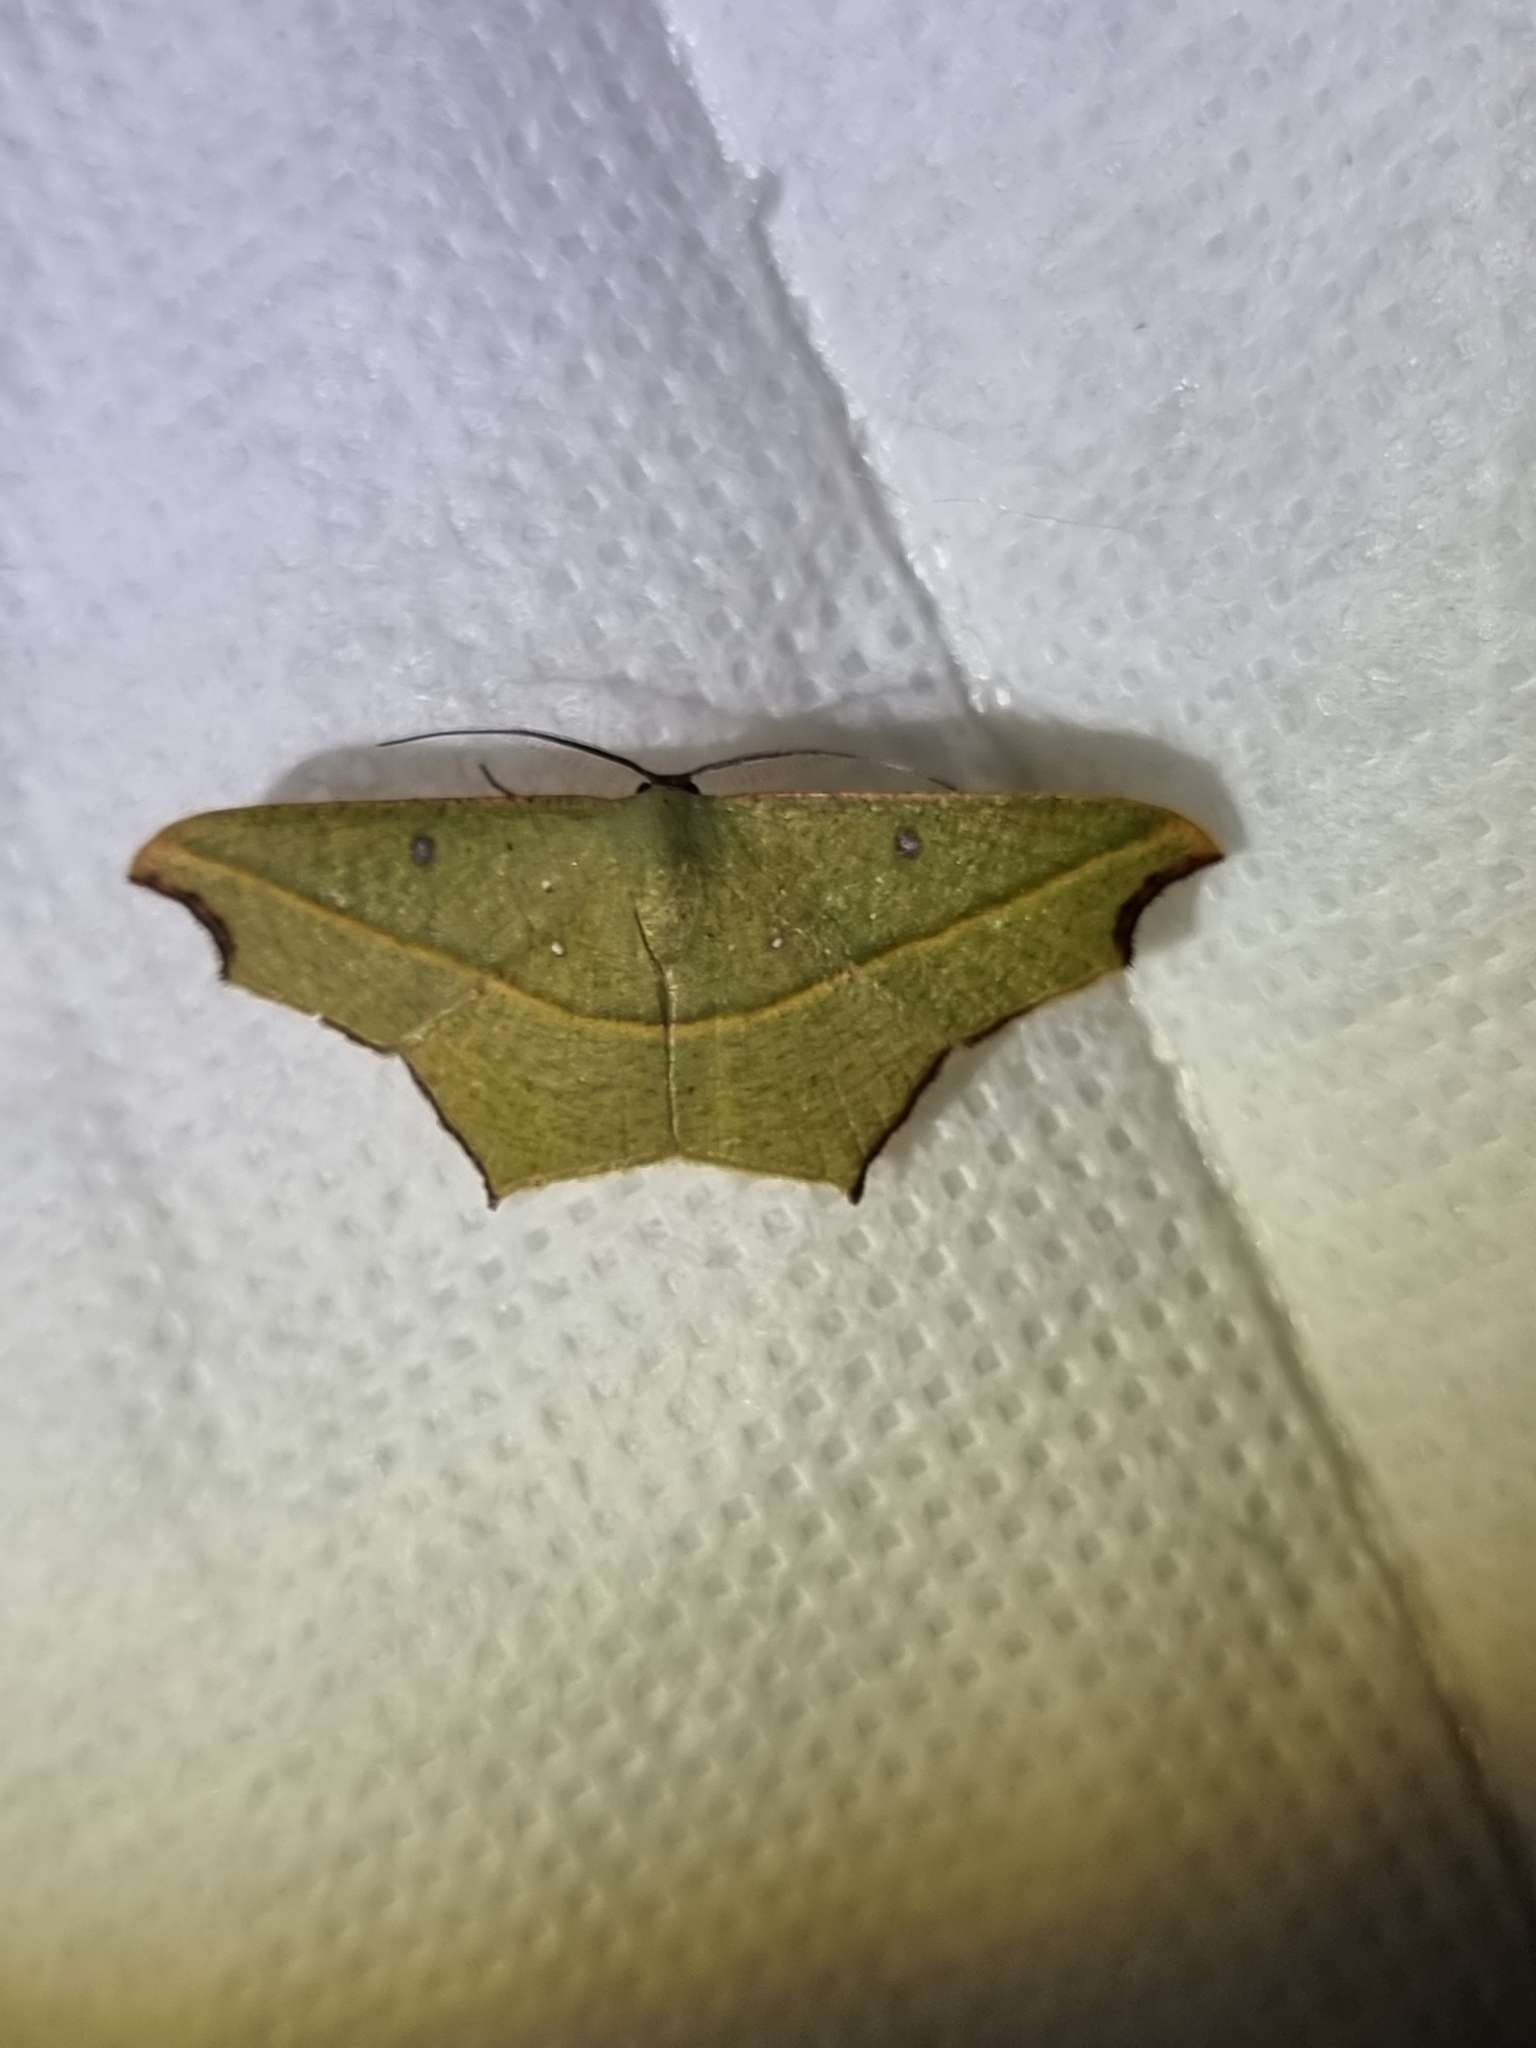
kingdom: Animalia
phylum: Arthropoda
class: Insecta
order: Lepidoptera
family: Geometridae
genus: Traminda
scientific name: Traminda aventiaria
